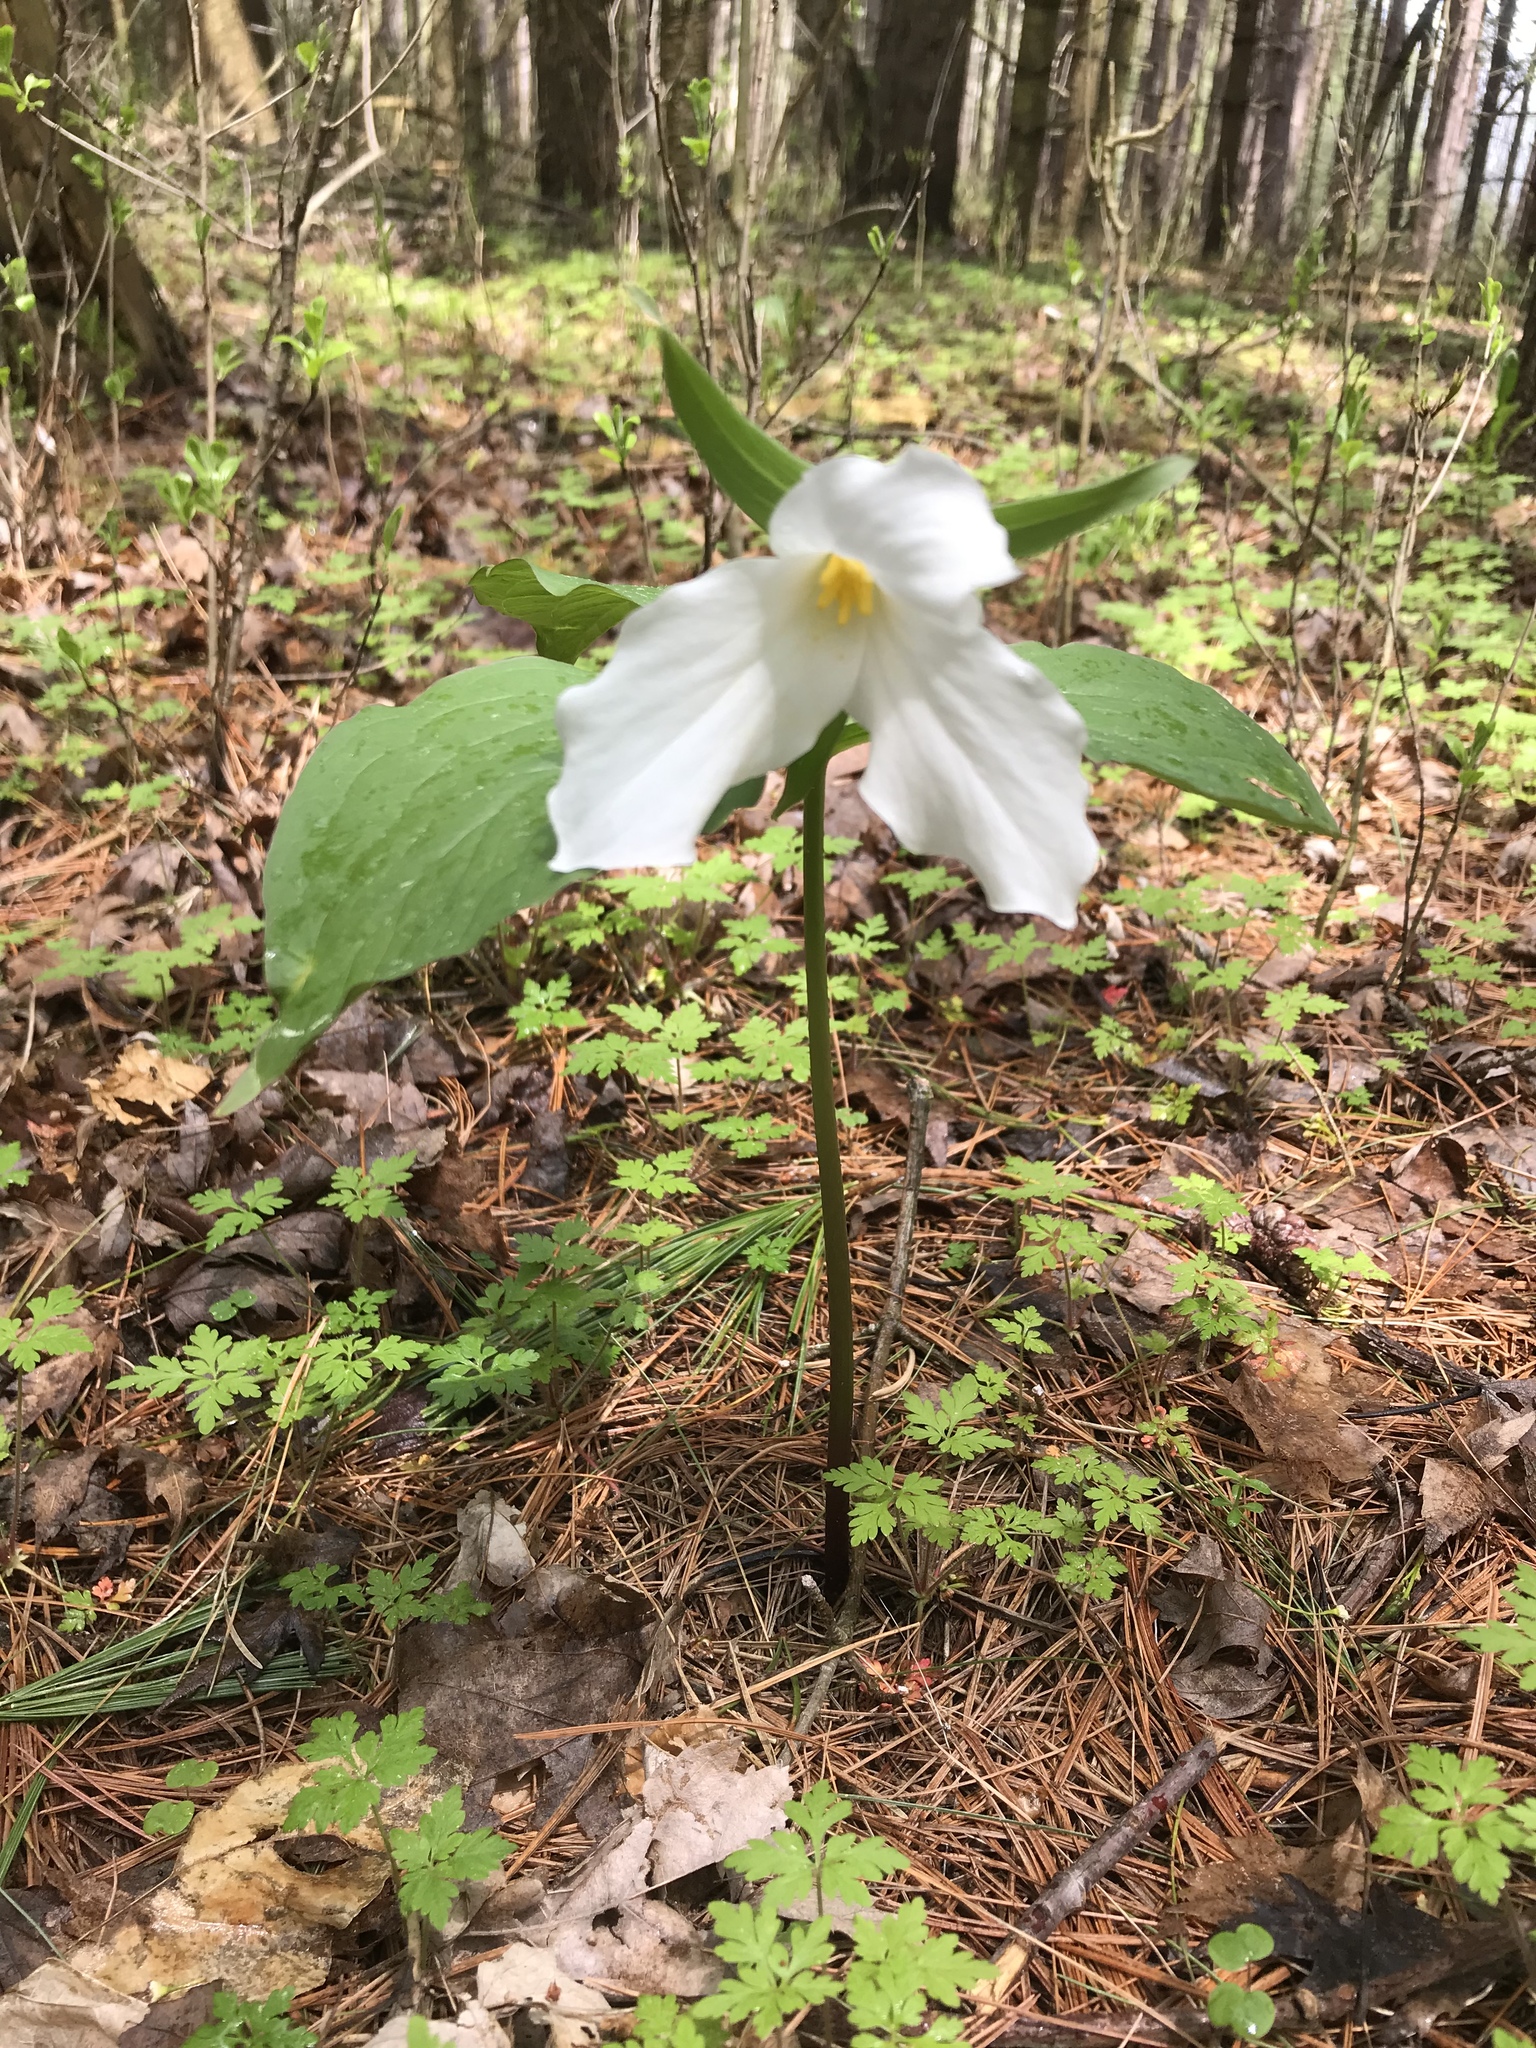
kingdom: Plantae
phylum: Tracheophyta
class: Liliopsida
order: Liliales
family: Melanthiaceae
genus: Trillium
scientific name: Trillium grandiflorum
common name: Great white trillium
